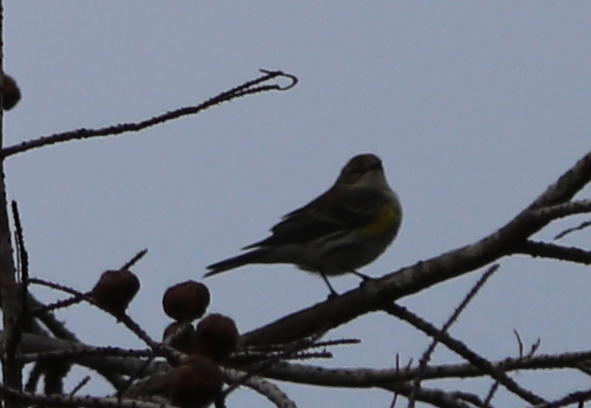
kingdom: Animalia
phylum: Chordata
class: Aves
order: Passeriformes
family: Parulidae
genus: Setophaga
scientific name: Setophaga coronata
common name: Myrtle warbler
